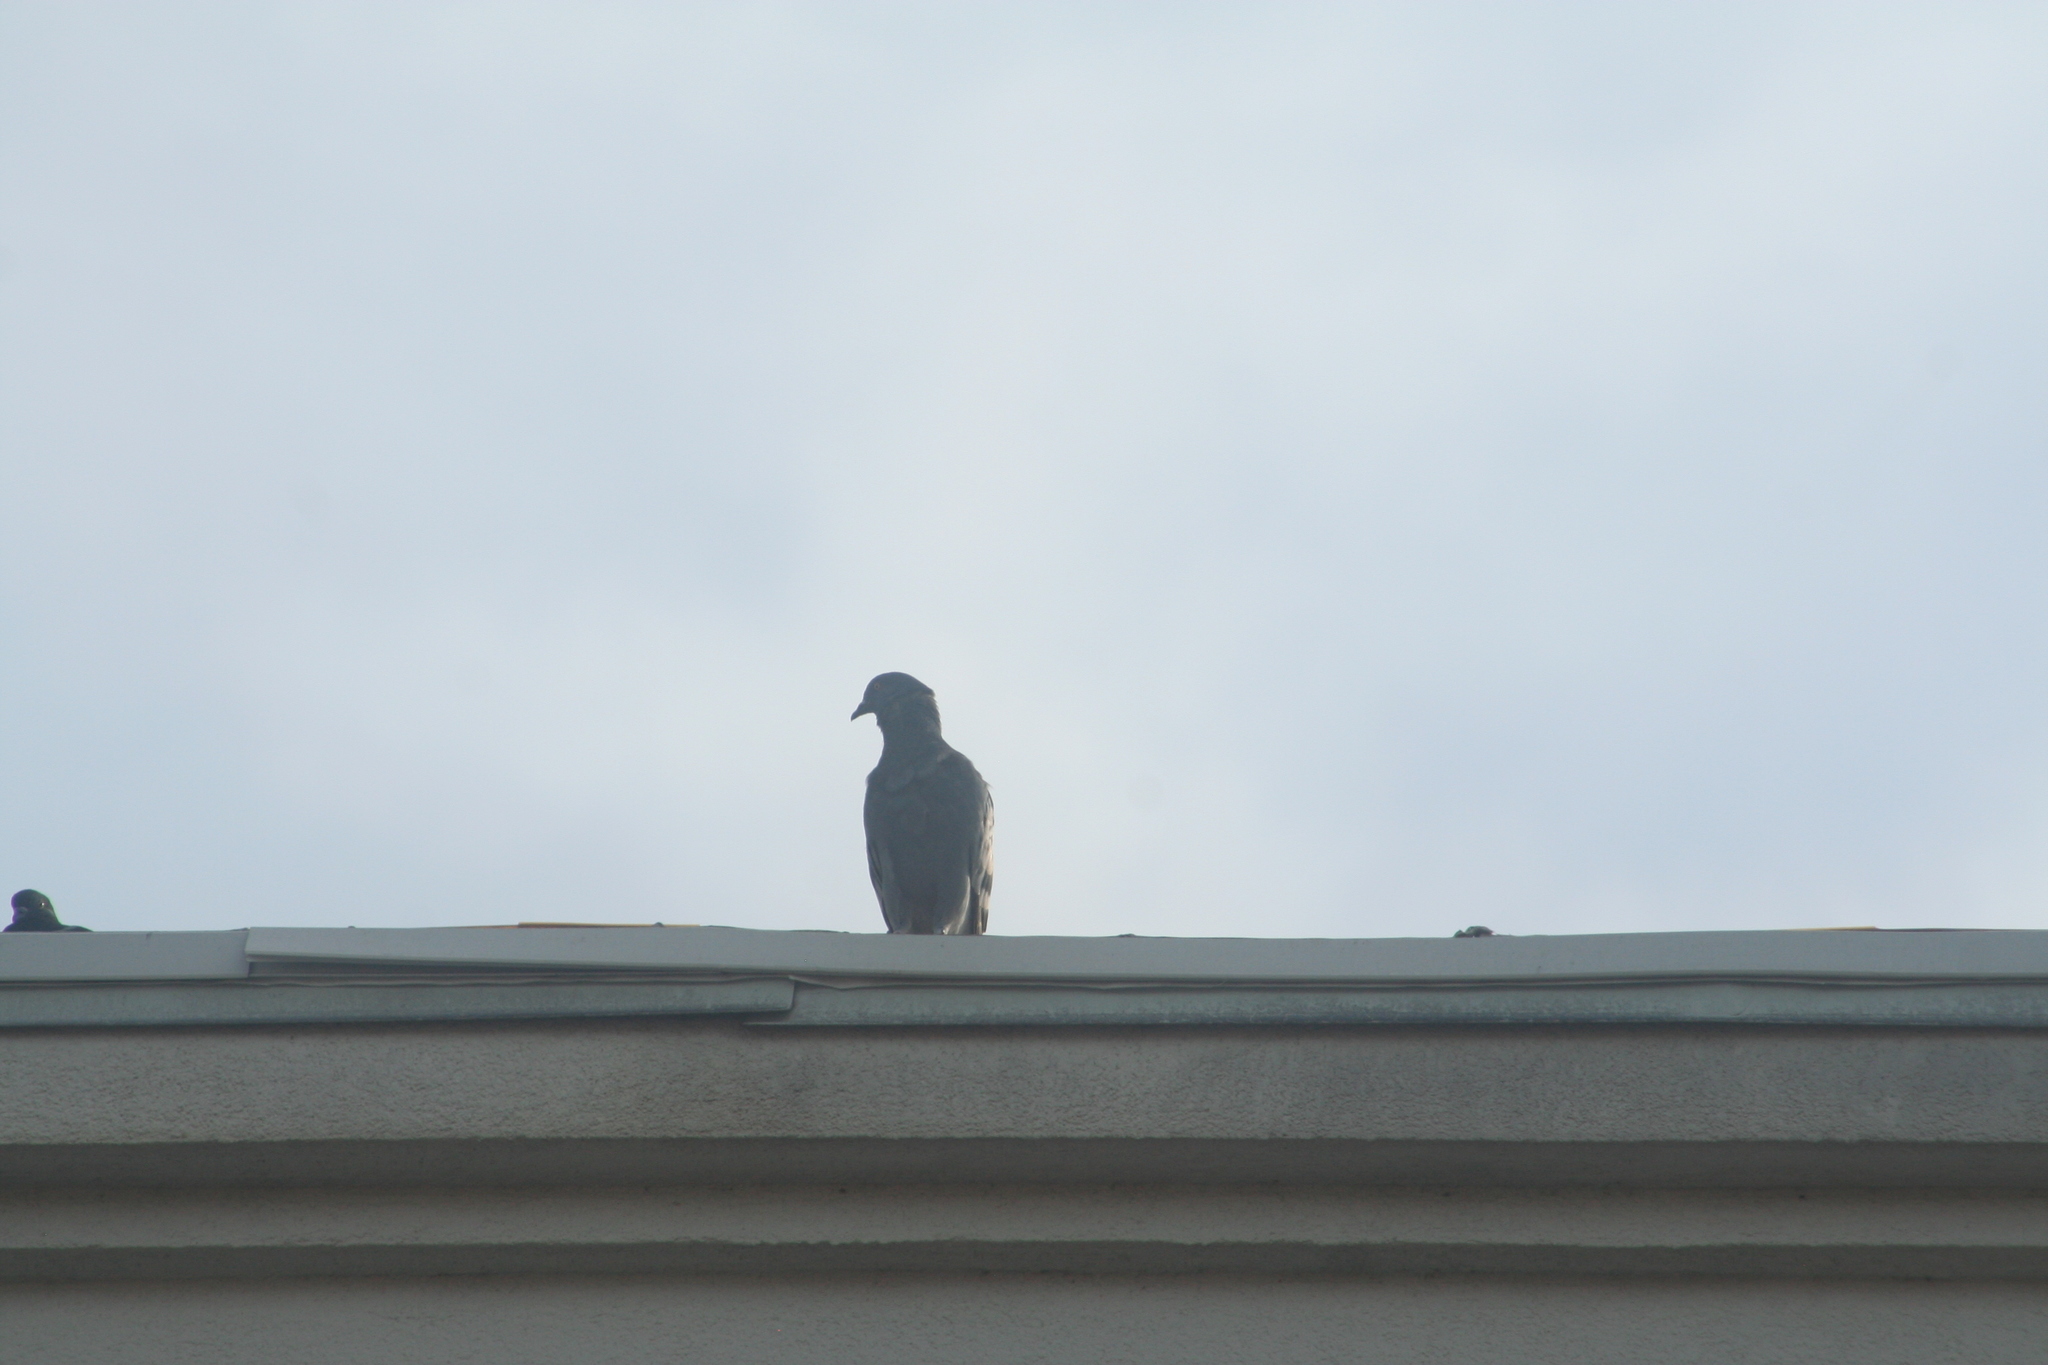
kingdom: Animalia
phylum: Chordata
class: Aves
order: Columbiformes
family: Columbidae
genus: Columba
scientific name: Columba livia
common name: Rock pigeon
